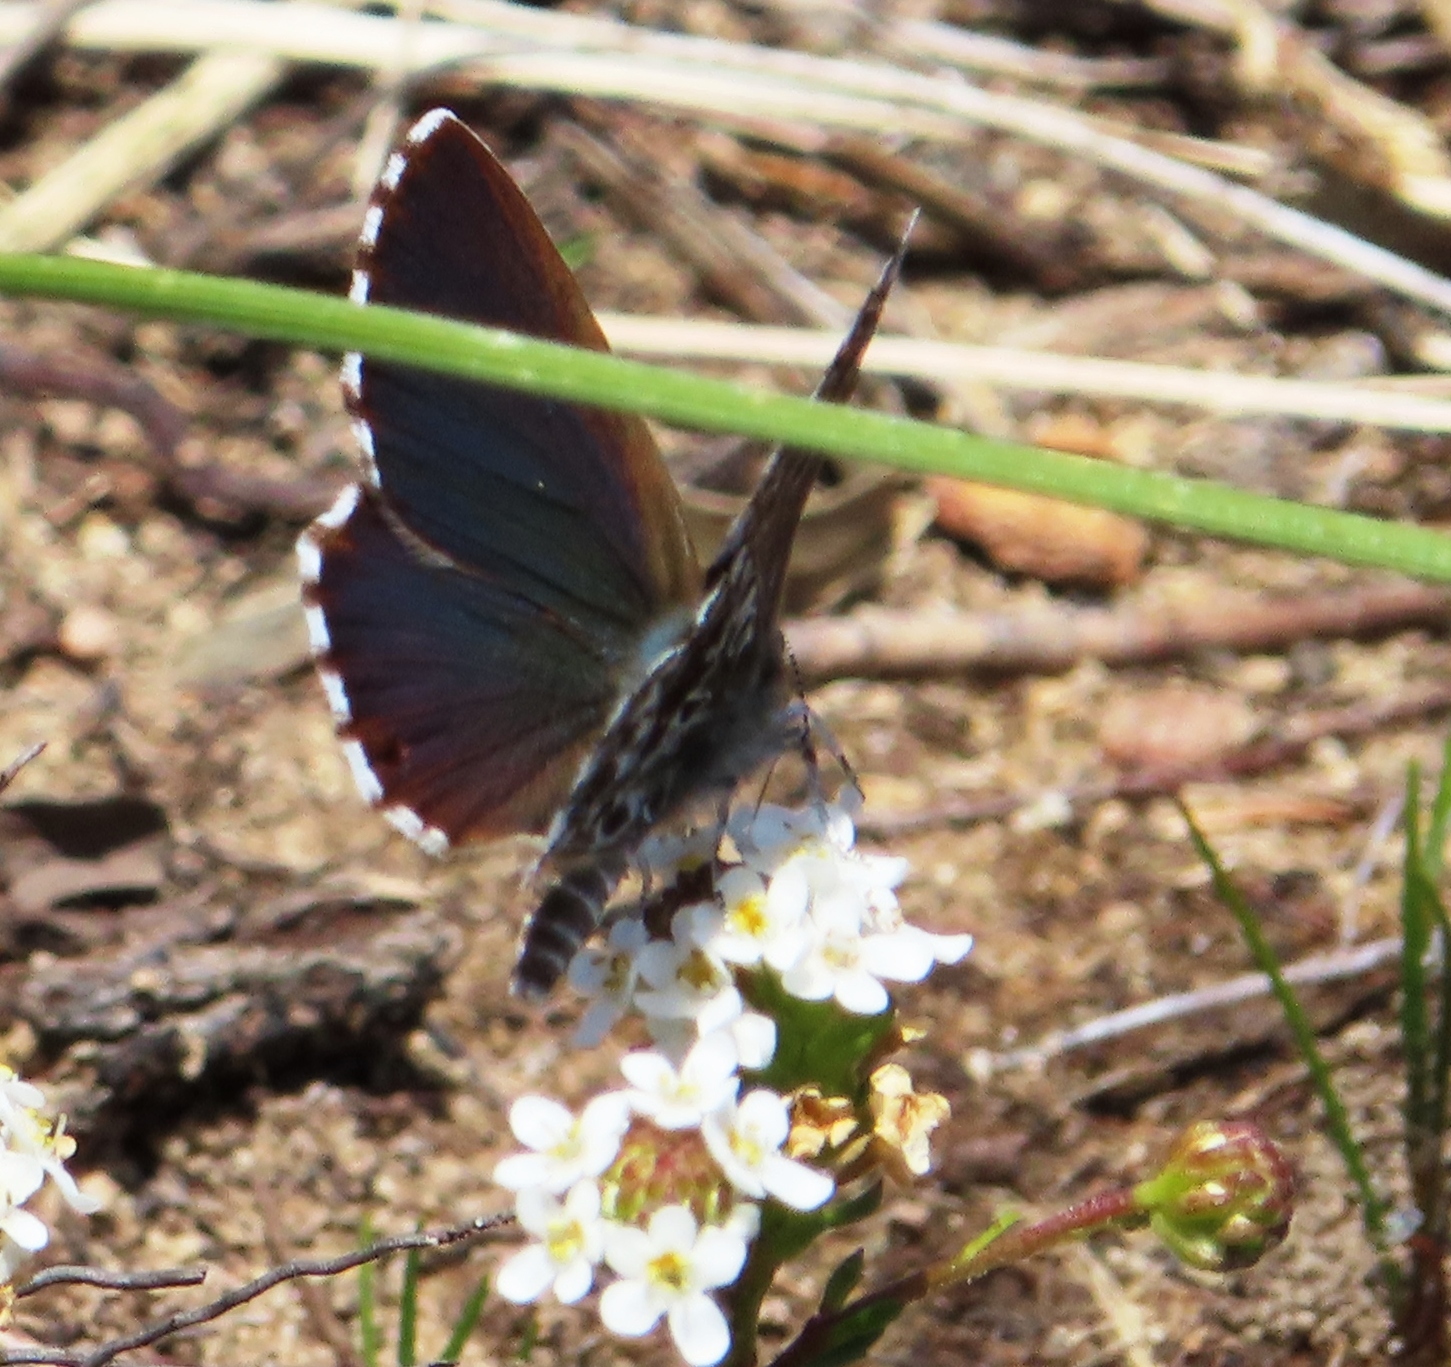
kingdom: Animalia
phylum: Arthropoda
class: Insecta
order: Lepidoptera
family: Lycaenidae
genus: Lepidochrysops
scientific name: Lepidochrysops robertsoni
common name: Robertson's blue
